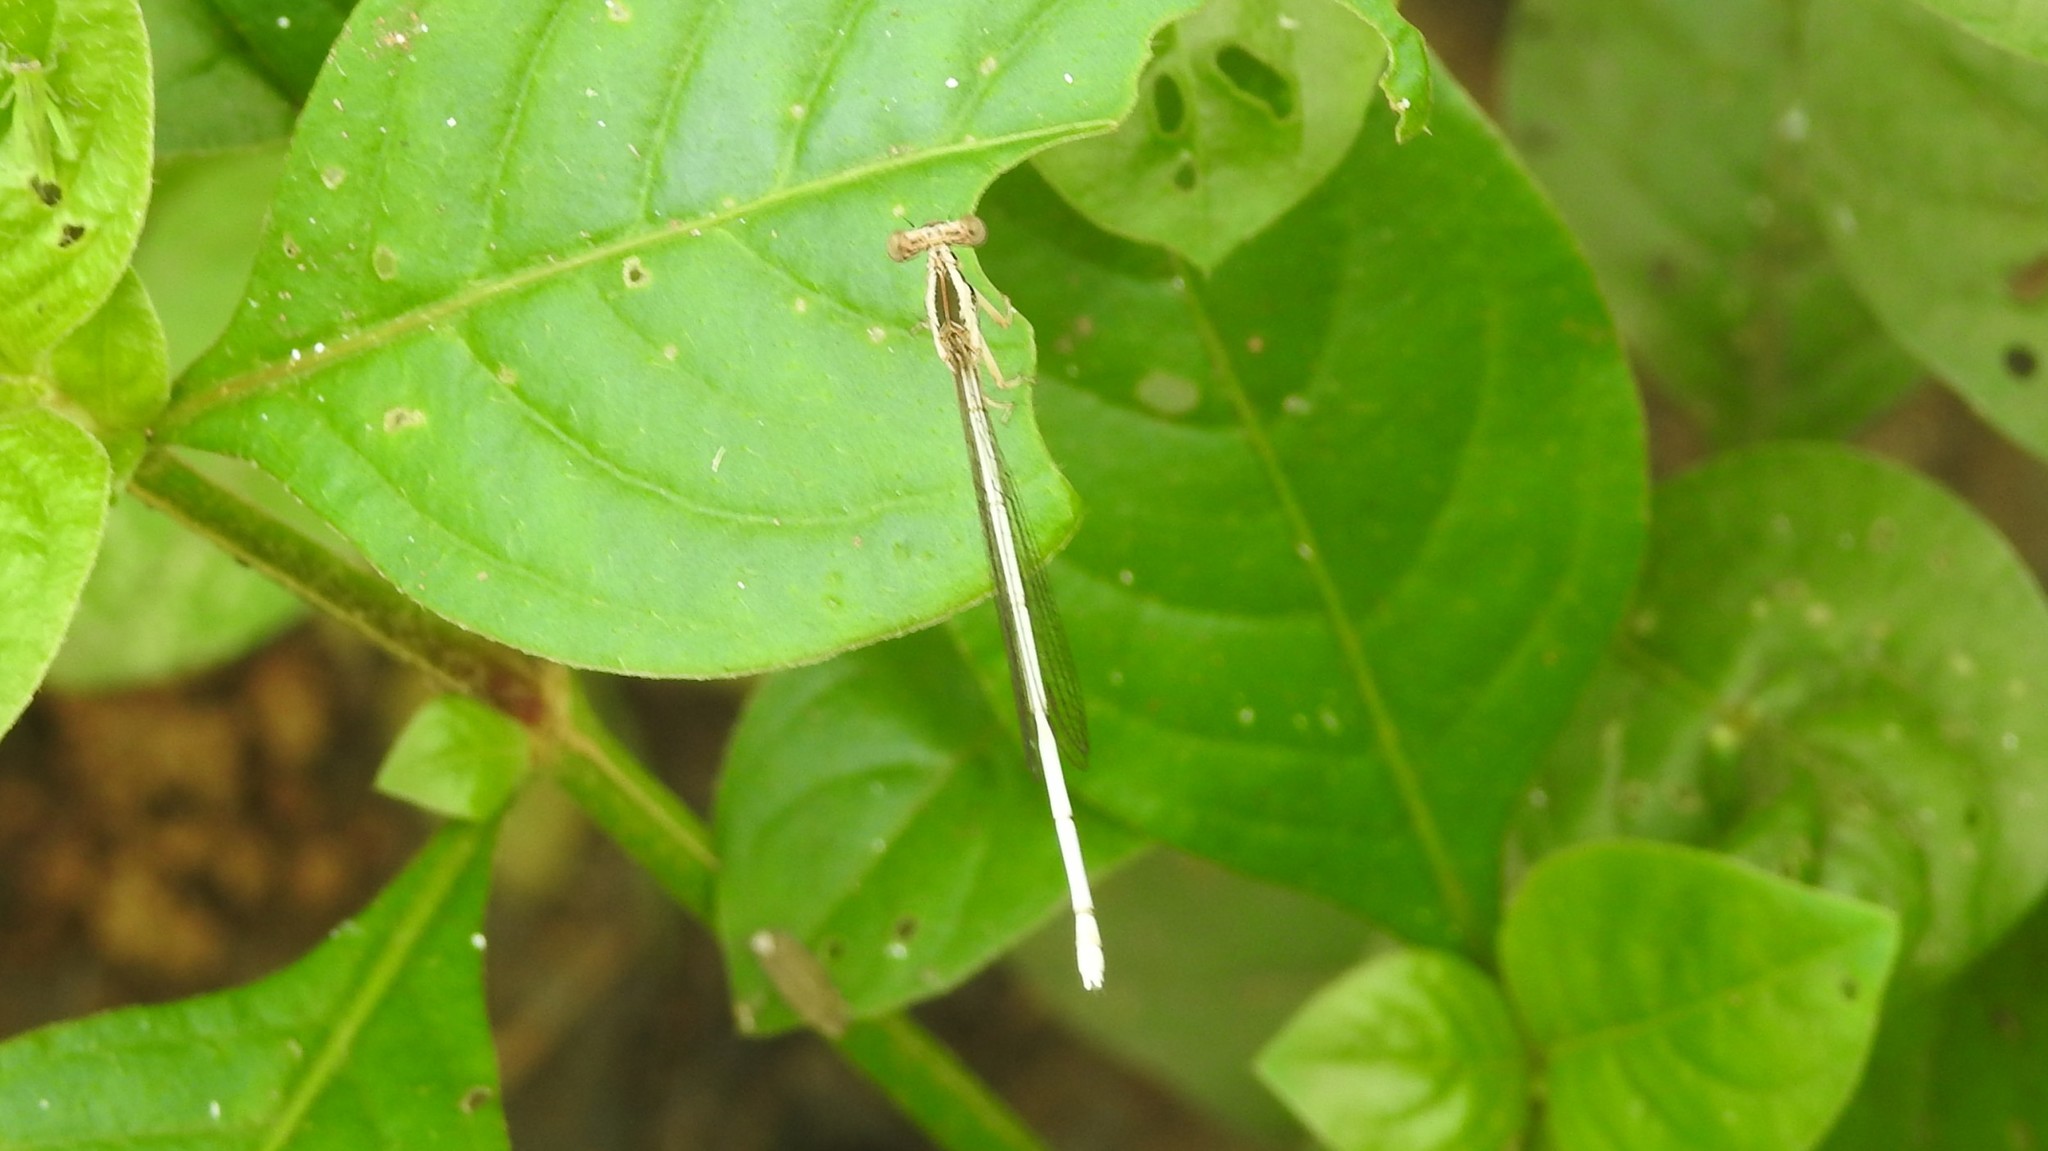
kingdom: Animalia
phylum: Arthropoda
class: Insecta
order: Odonata
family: Platycnemididae
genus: Copera
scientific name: Copera marginipes
